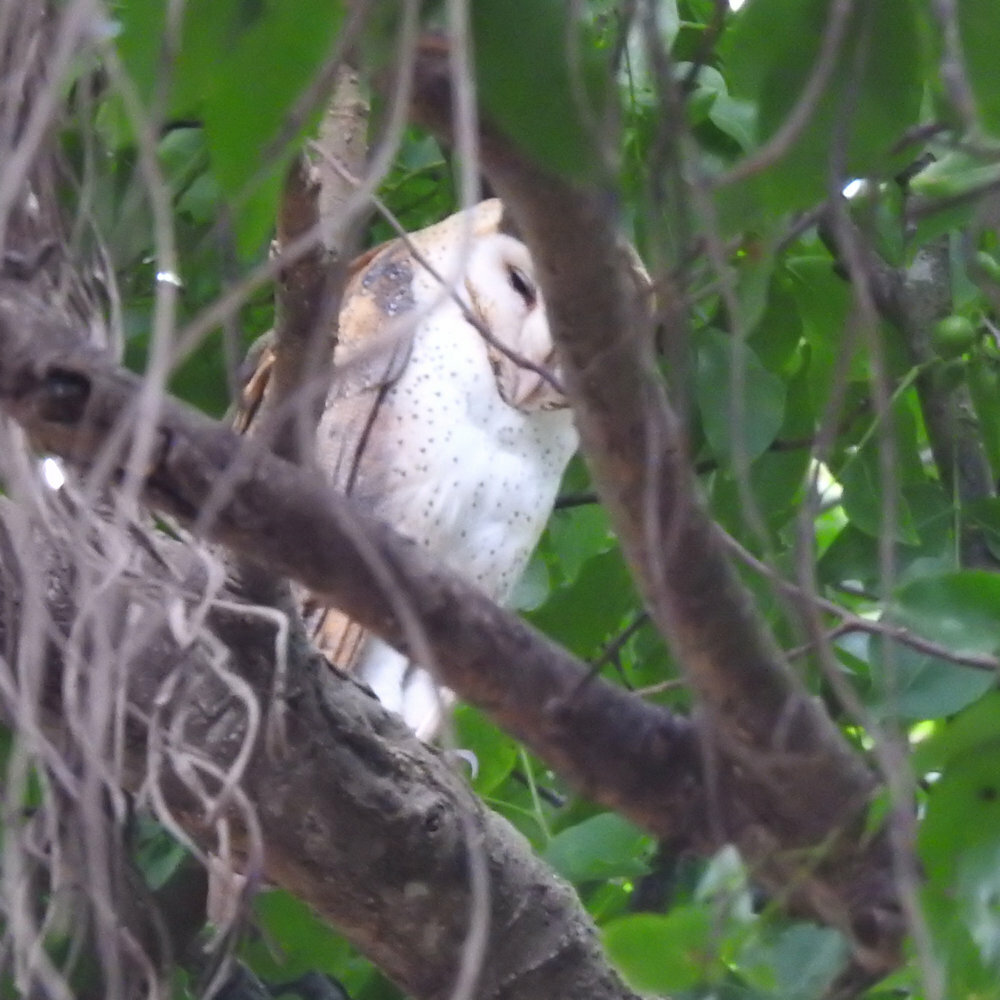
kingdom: Animalia
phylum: Chordata
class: Aves
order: Strigiformes
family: Tytonidae
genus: Tyto
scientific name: Tyto alba
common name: Barn owl
